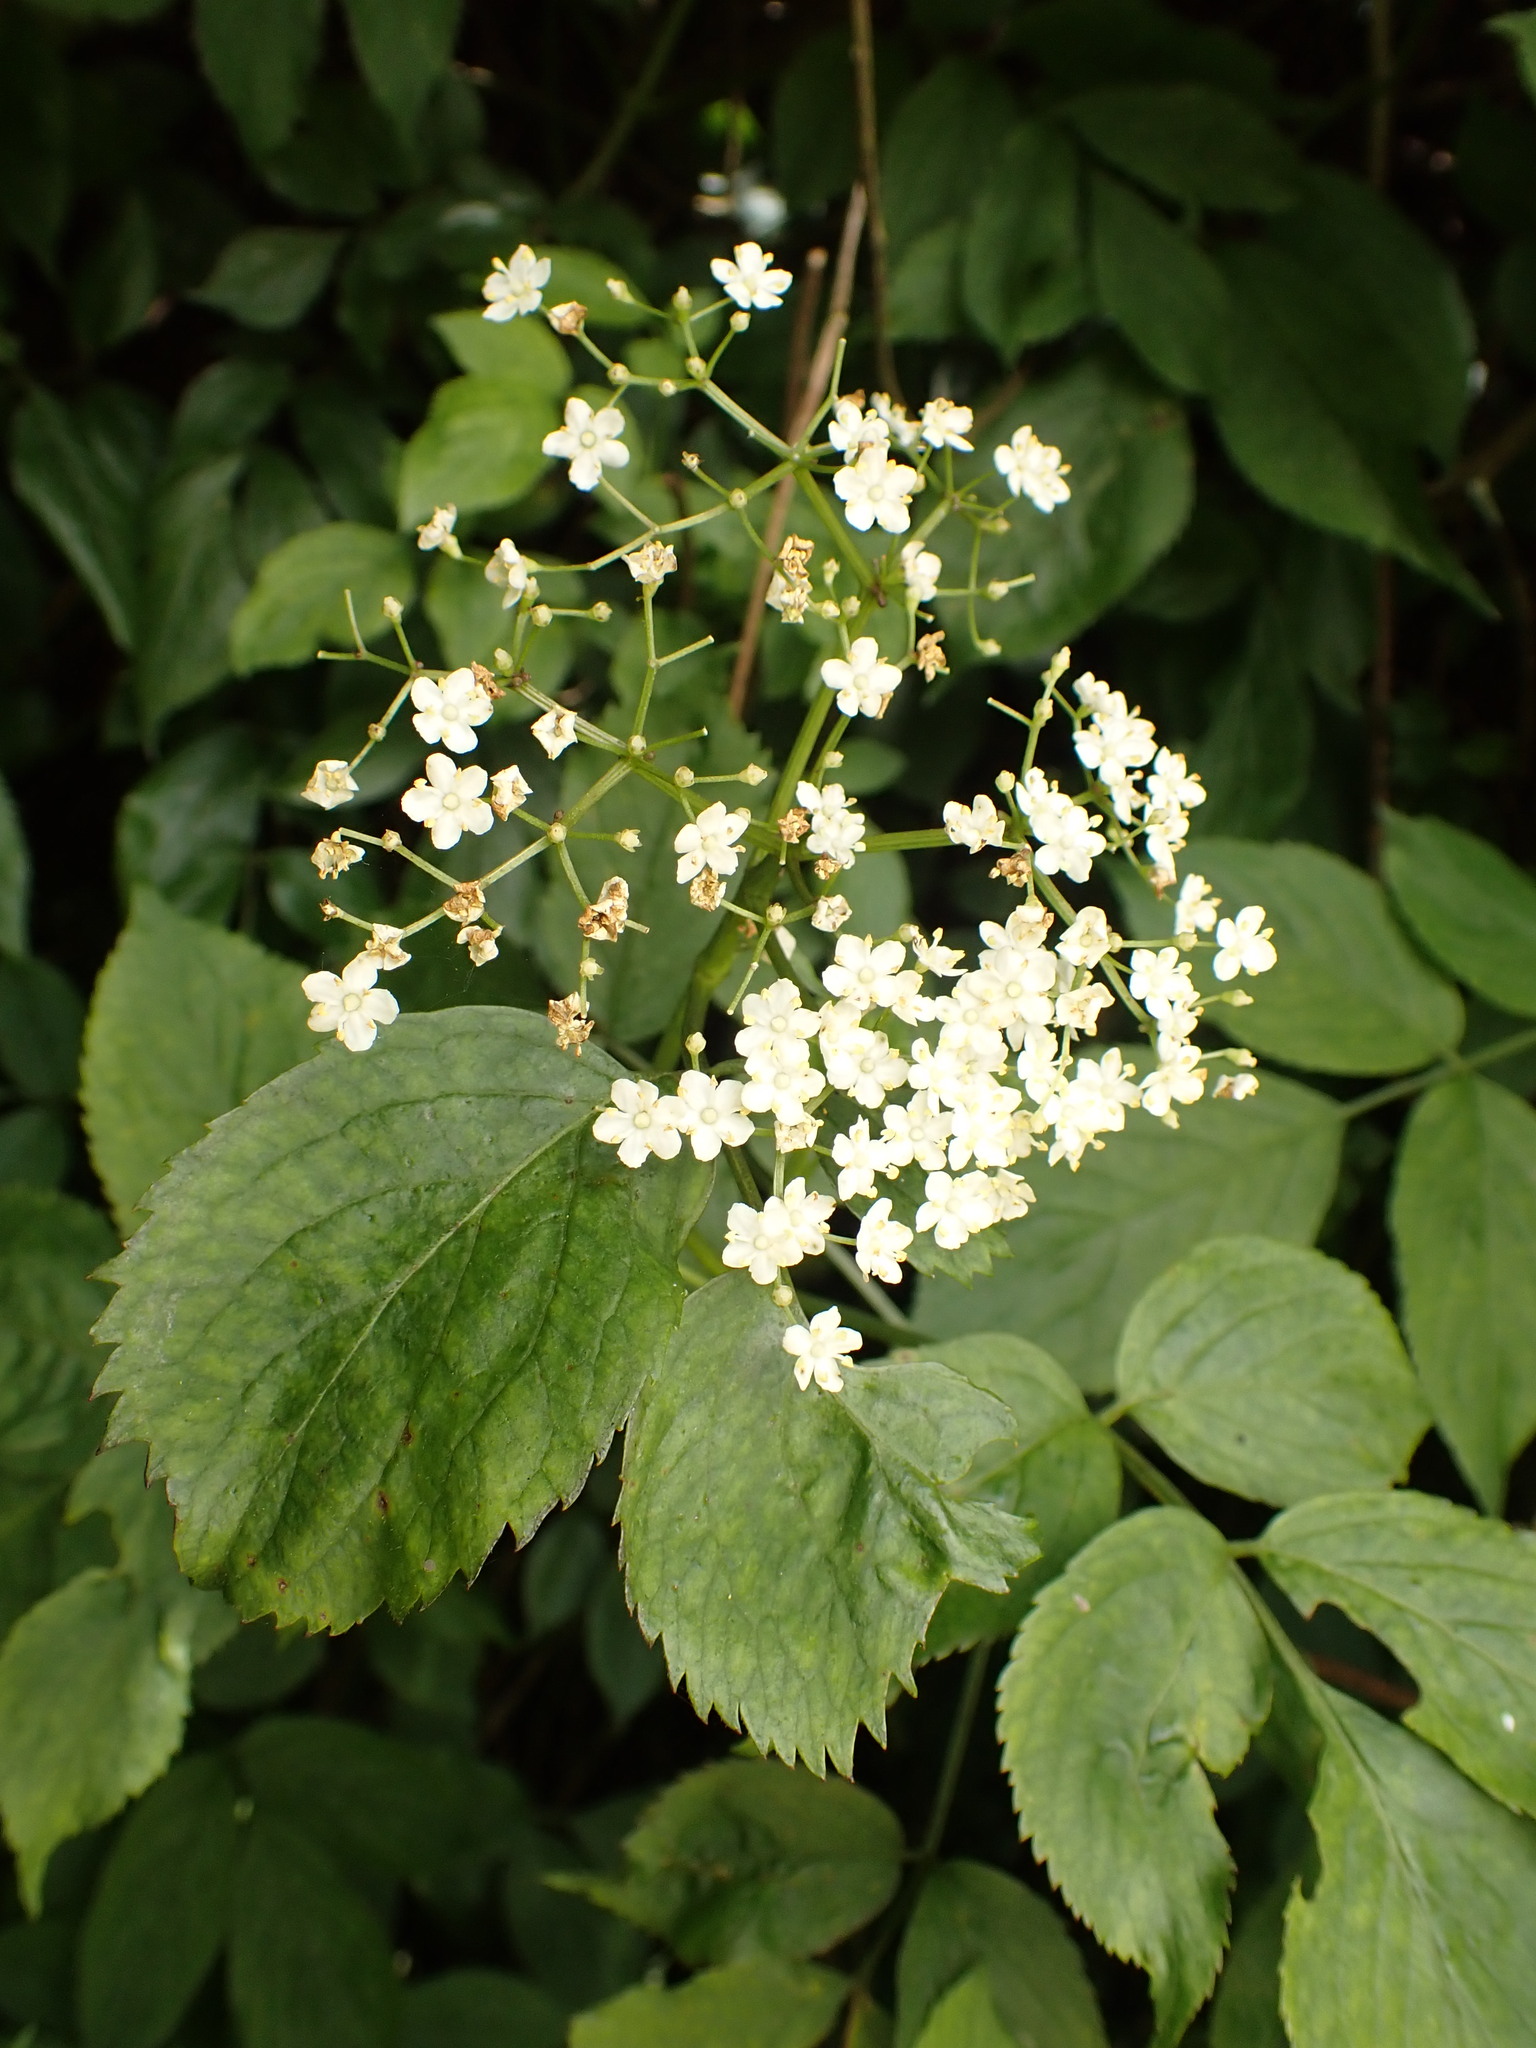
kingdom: Plantae
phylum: Tracheophyta
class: Magnoliopsida
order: Dipsacales
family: Viburnaceae
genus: Sambucus
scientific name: Sambucus nigra
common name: Elder
